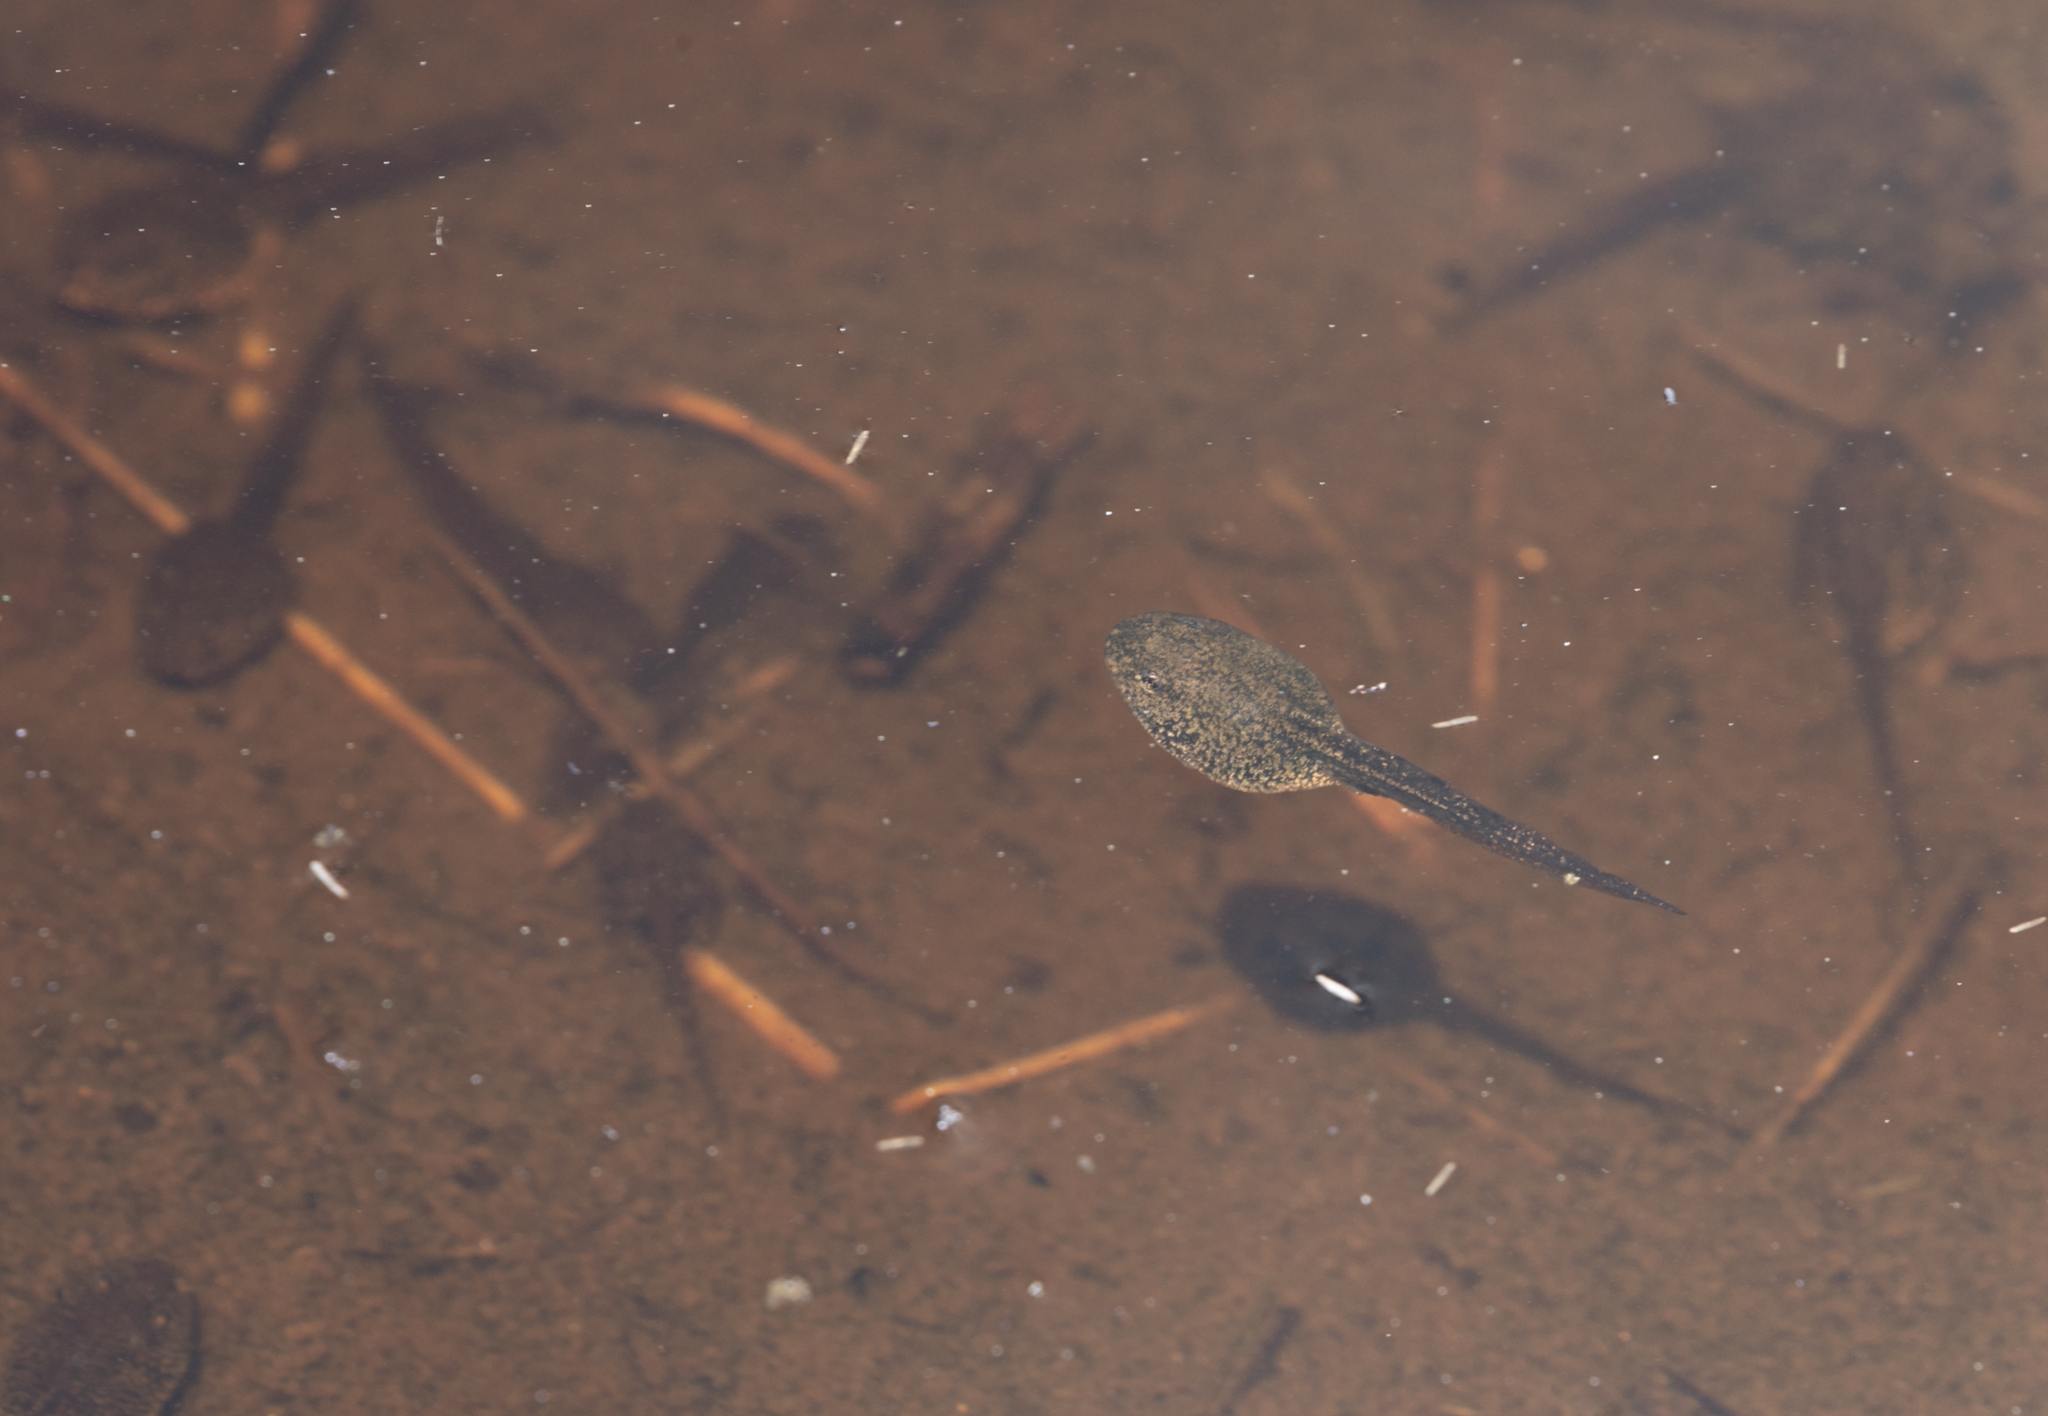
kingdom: Animalia
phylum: Chordata
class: Amphibia
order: Anura
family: Ranidae
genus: Rana
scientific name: Rana temporaria
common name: Common frog
